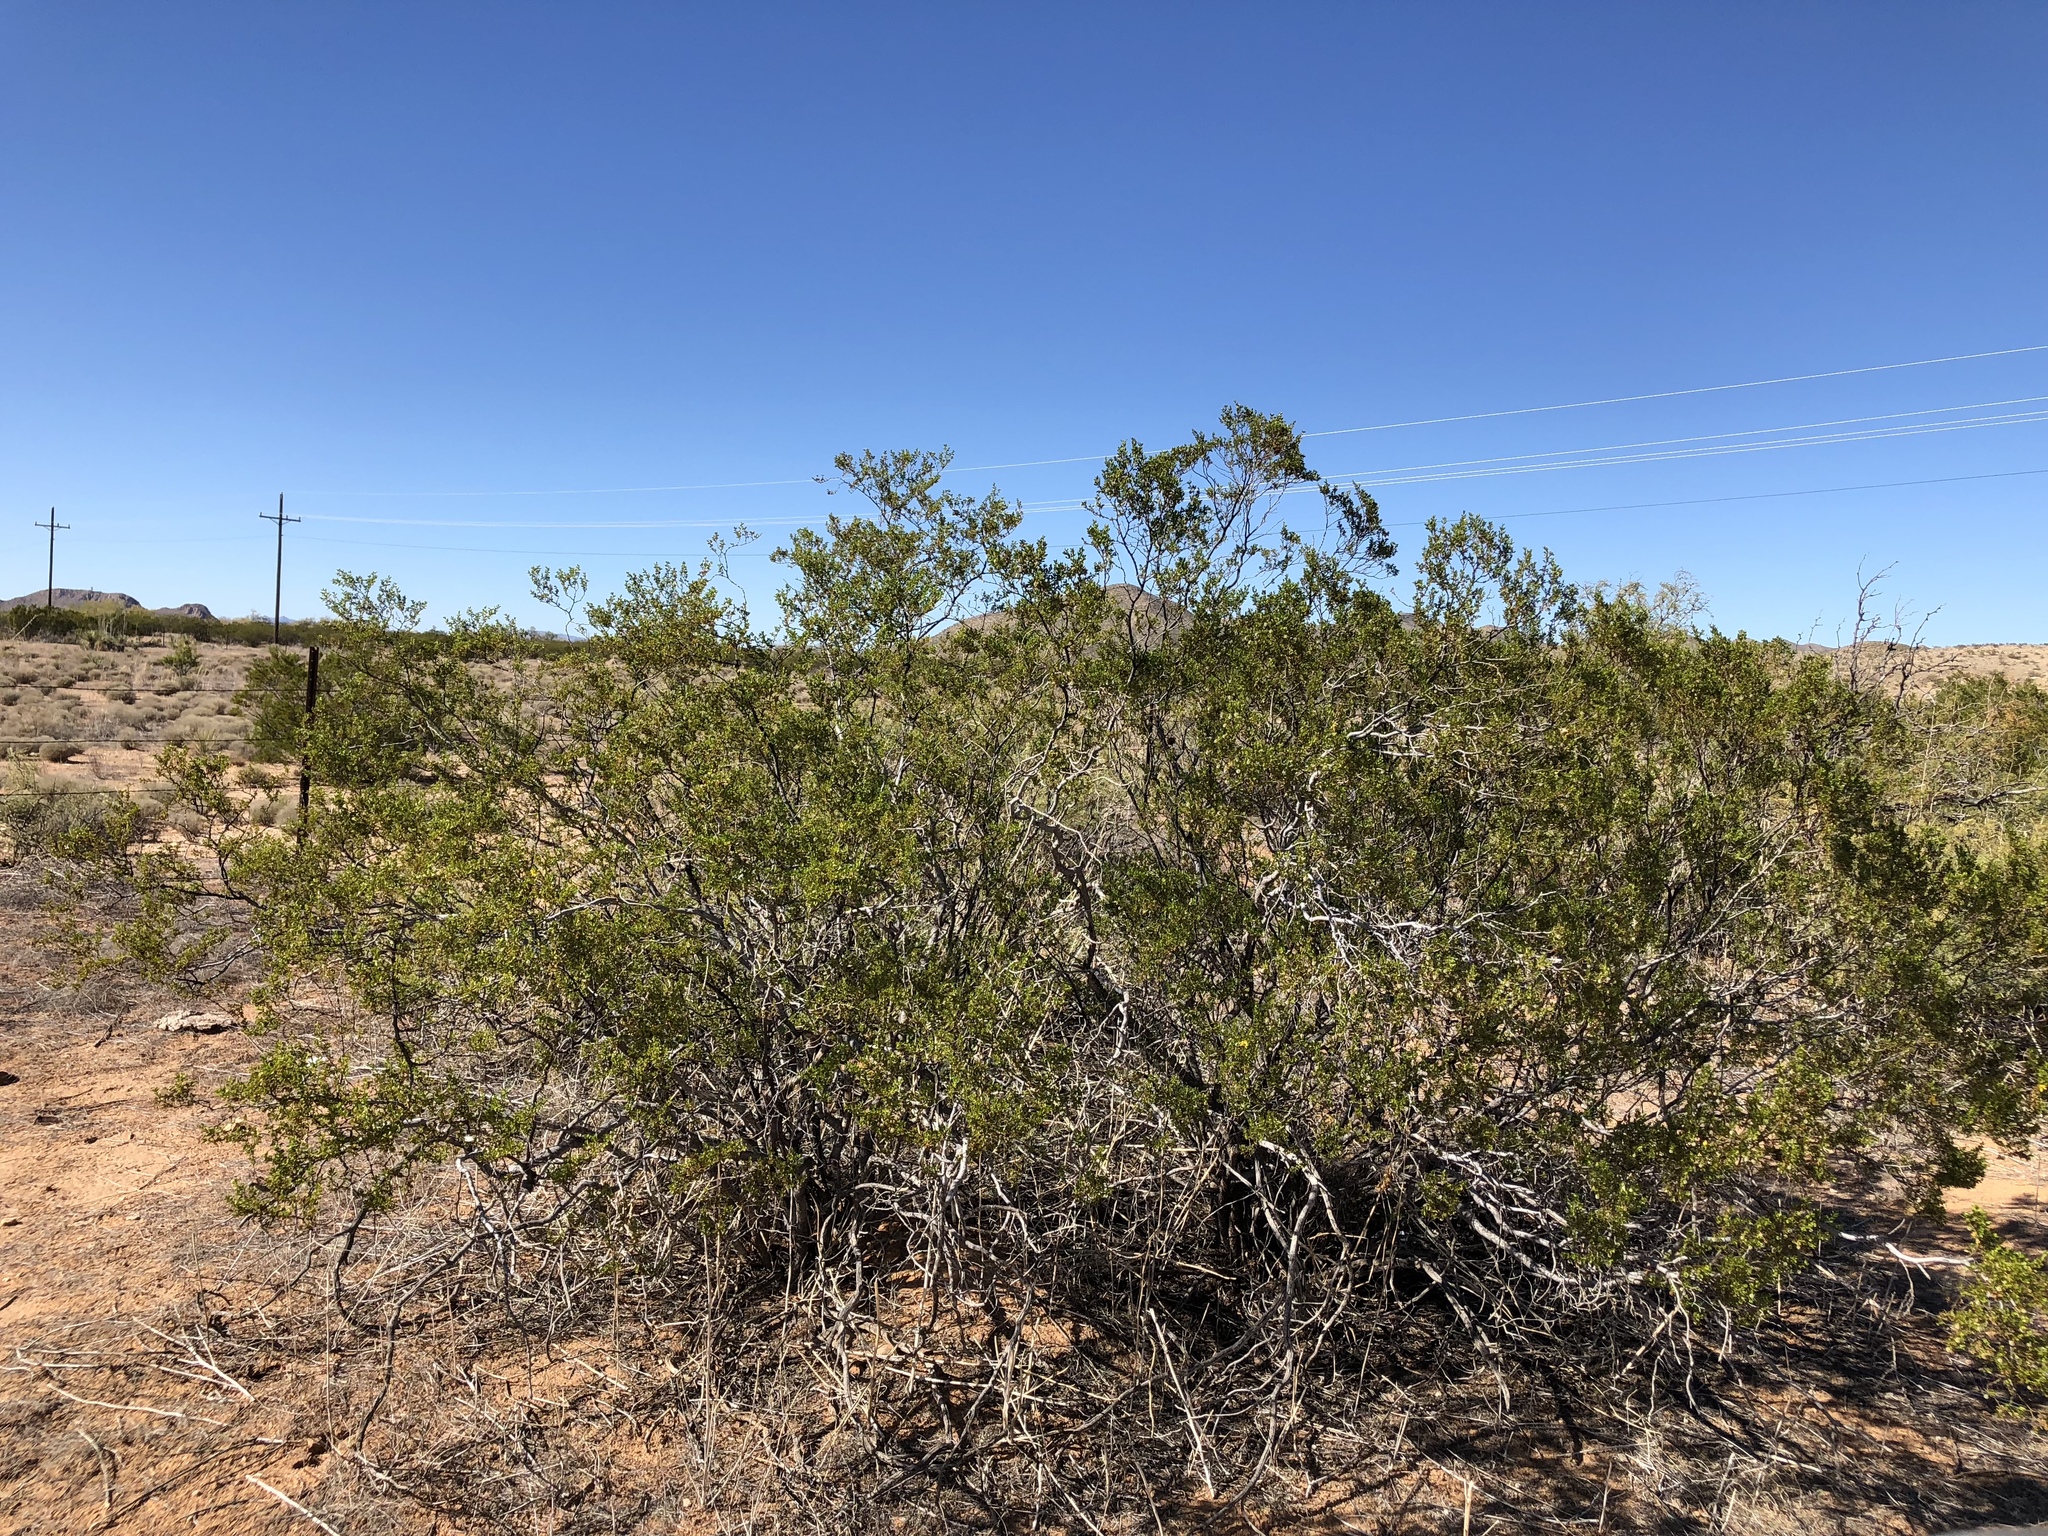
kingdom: Plantae
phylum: Tracheophyta
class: Magnoliopsida
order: Zygophyllales
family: Zygophyllaceae
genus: Larrea
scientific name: Larrea tridentata
